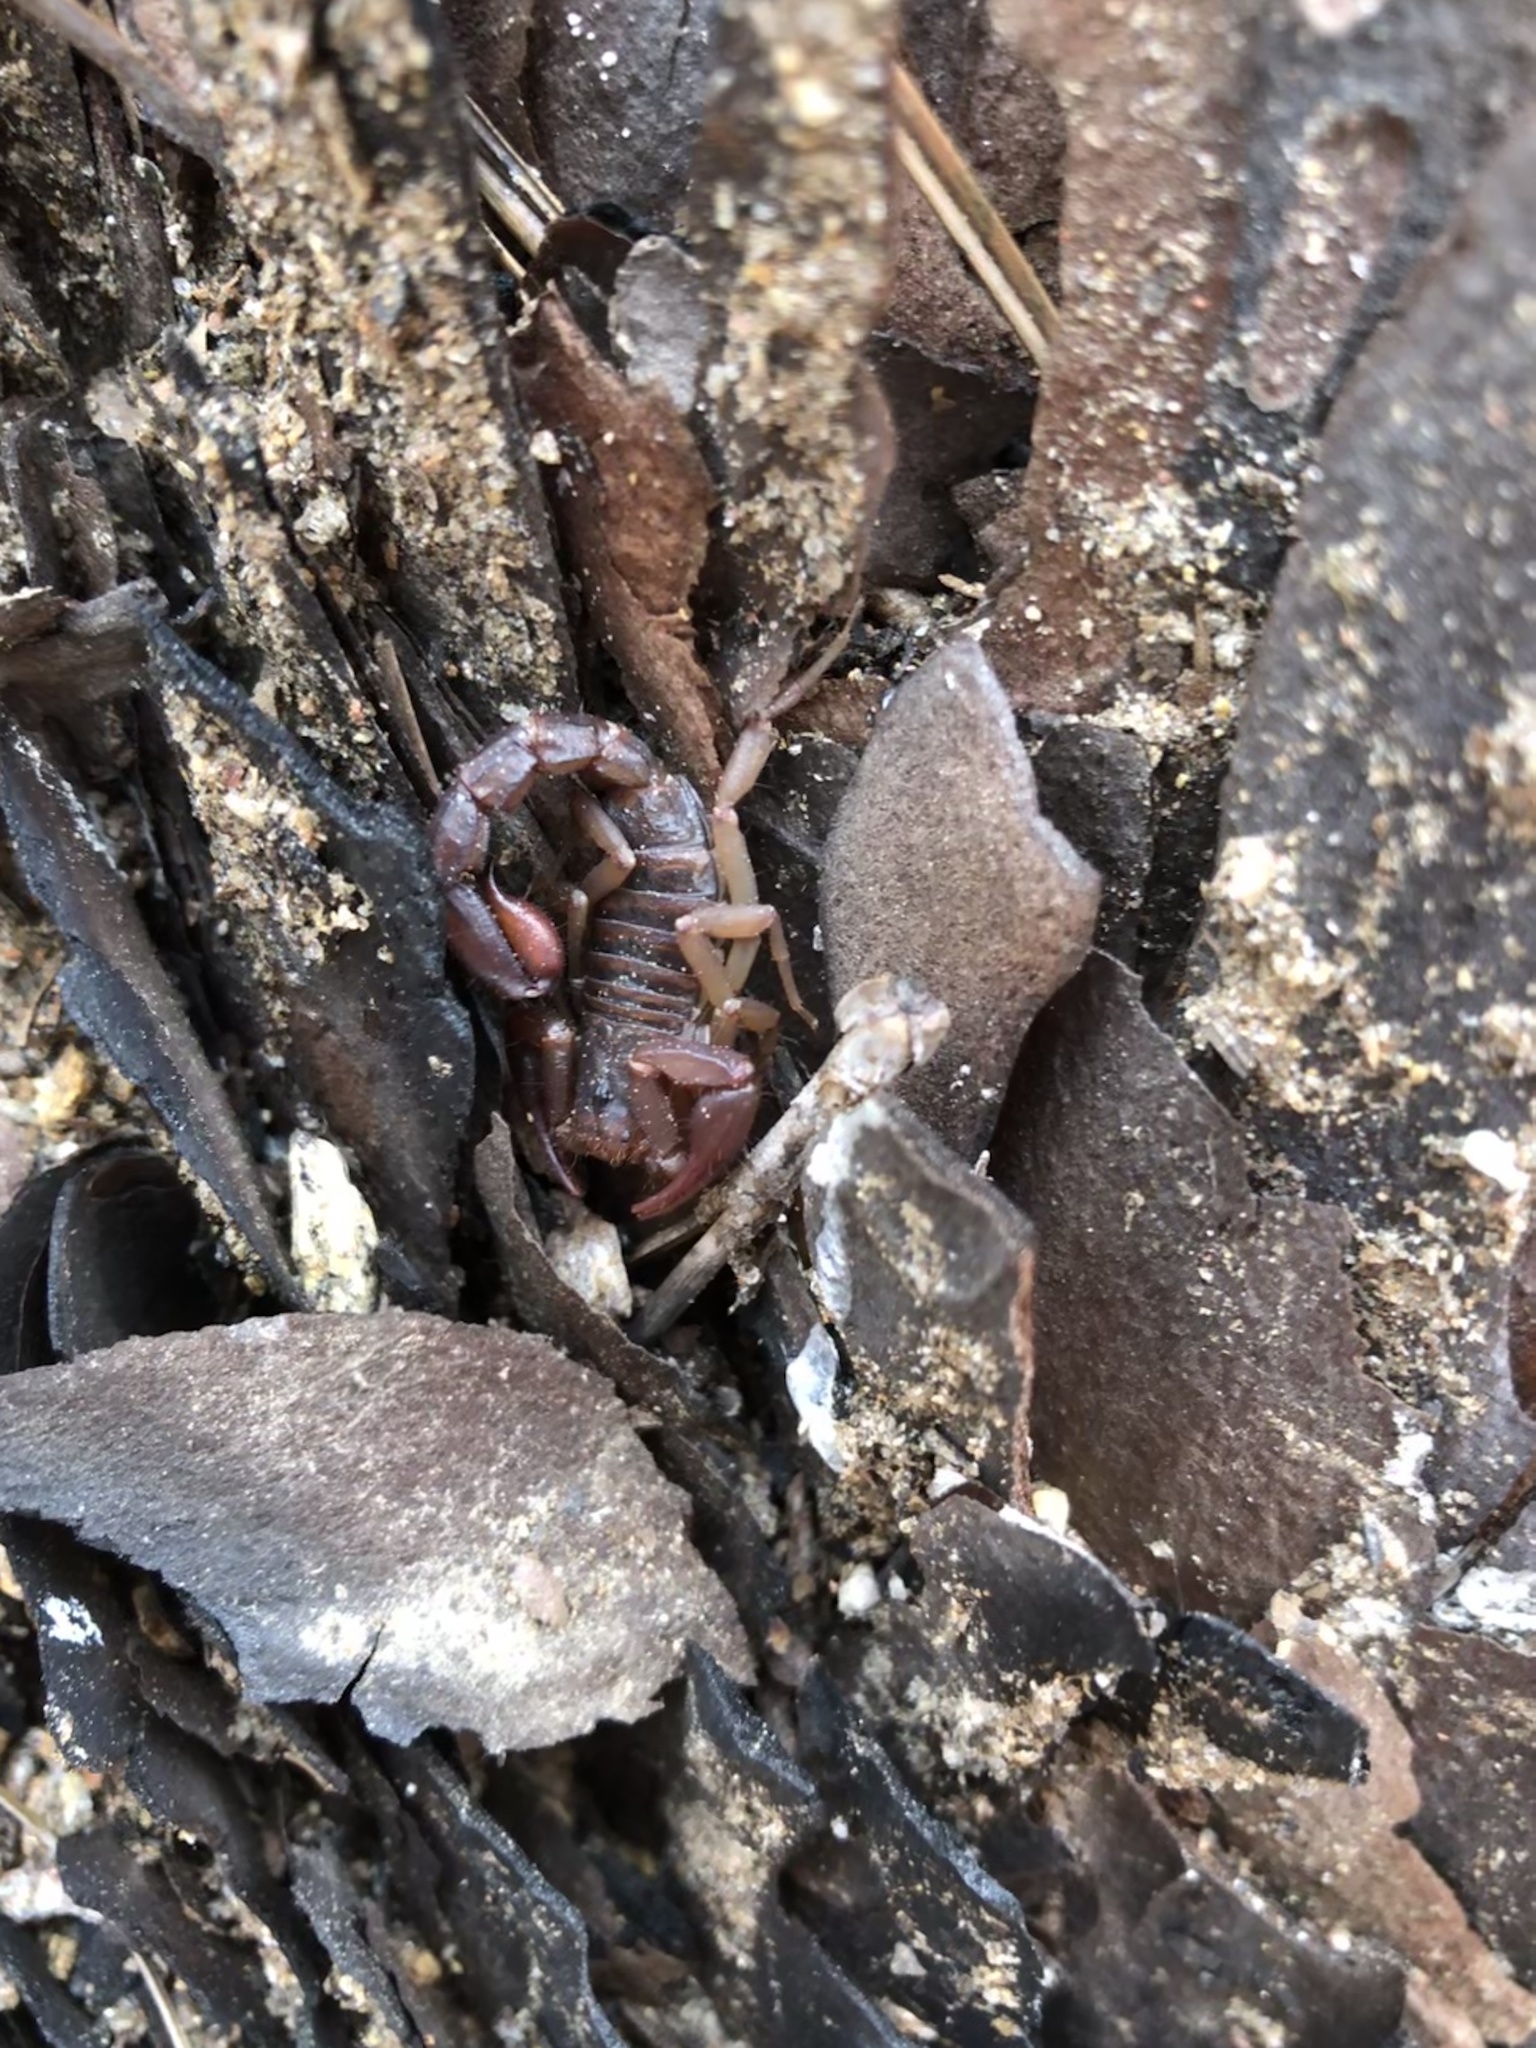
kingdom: Animalia
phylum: Arthropoda
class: Arachnida
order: Scorpiones
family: Vaejovidae
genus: Vaejovis
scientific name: Vaejovis carolinianus
